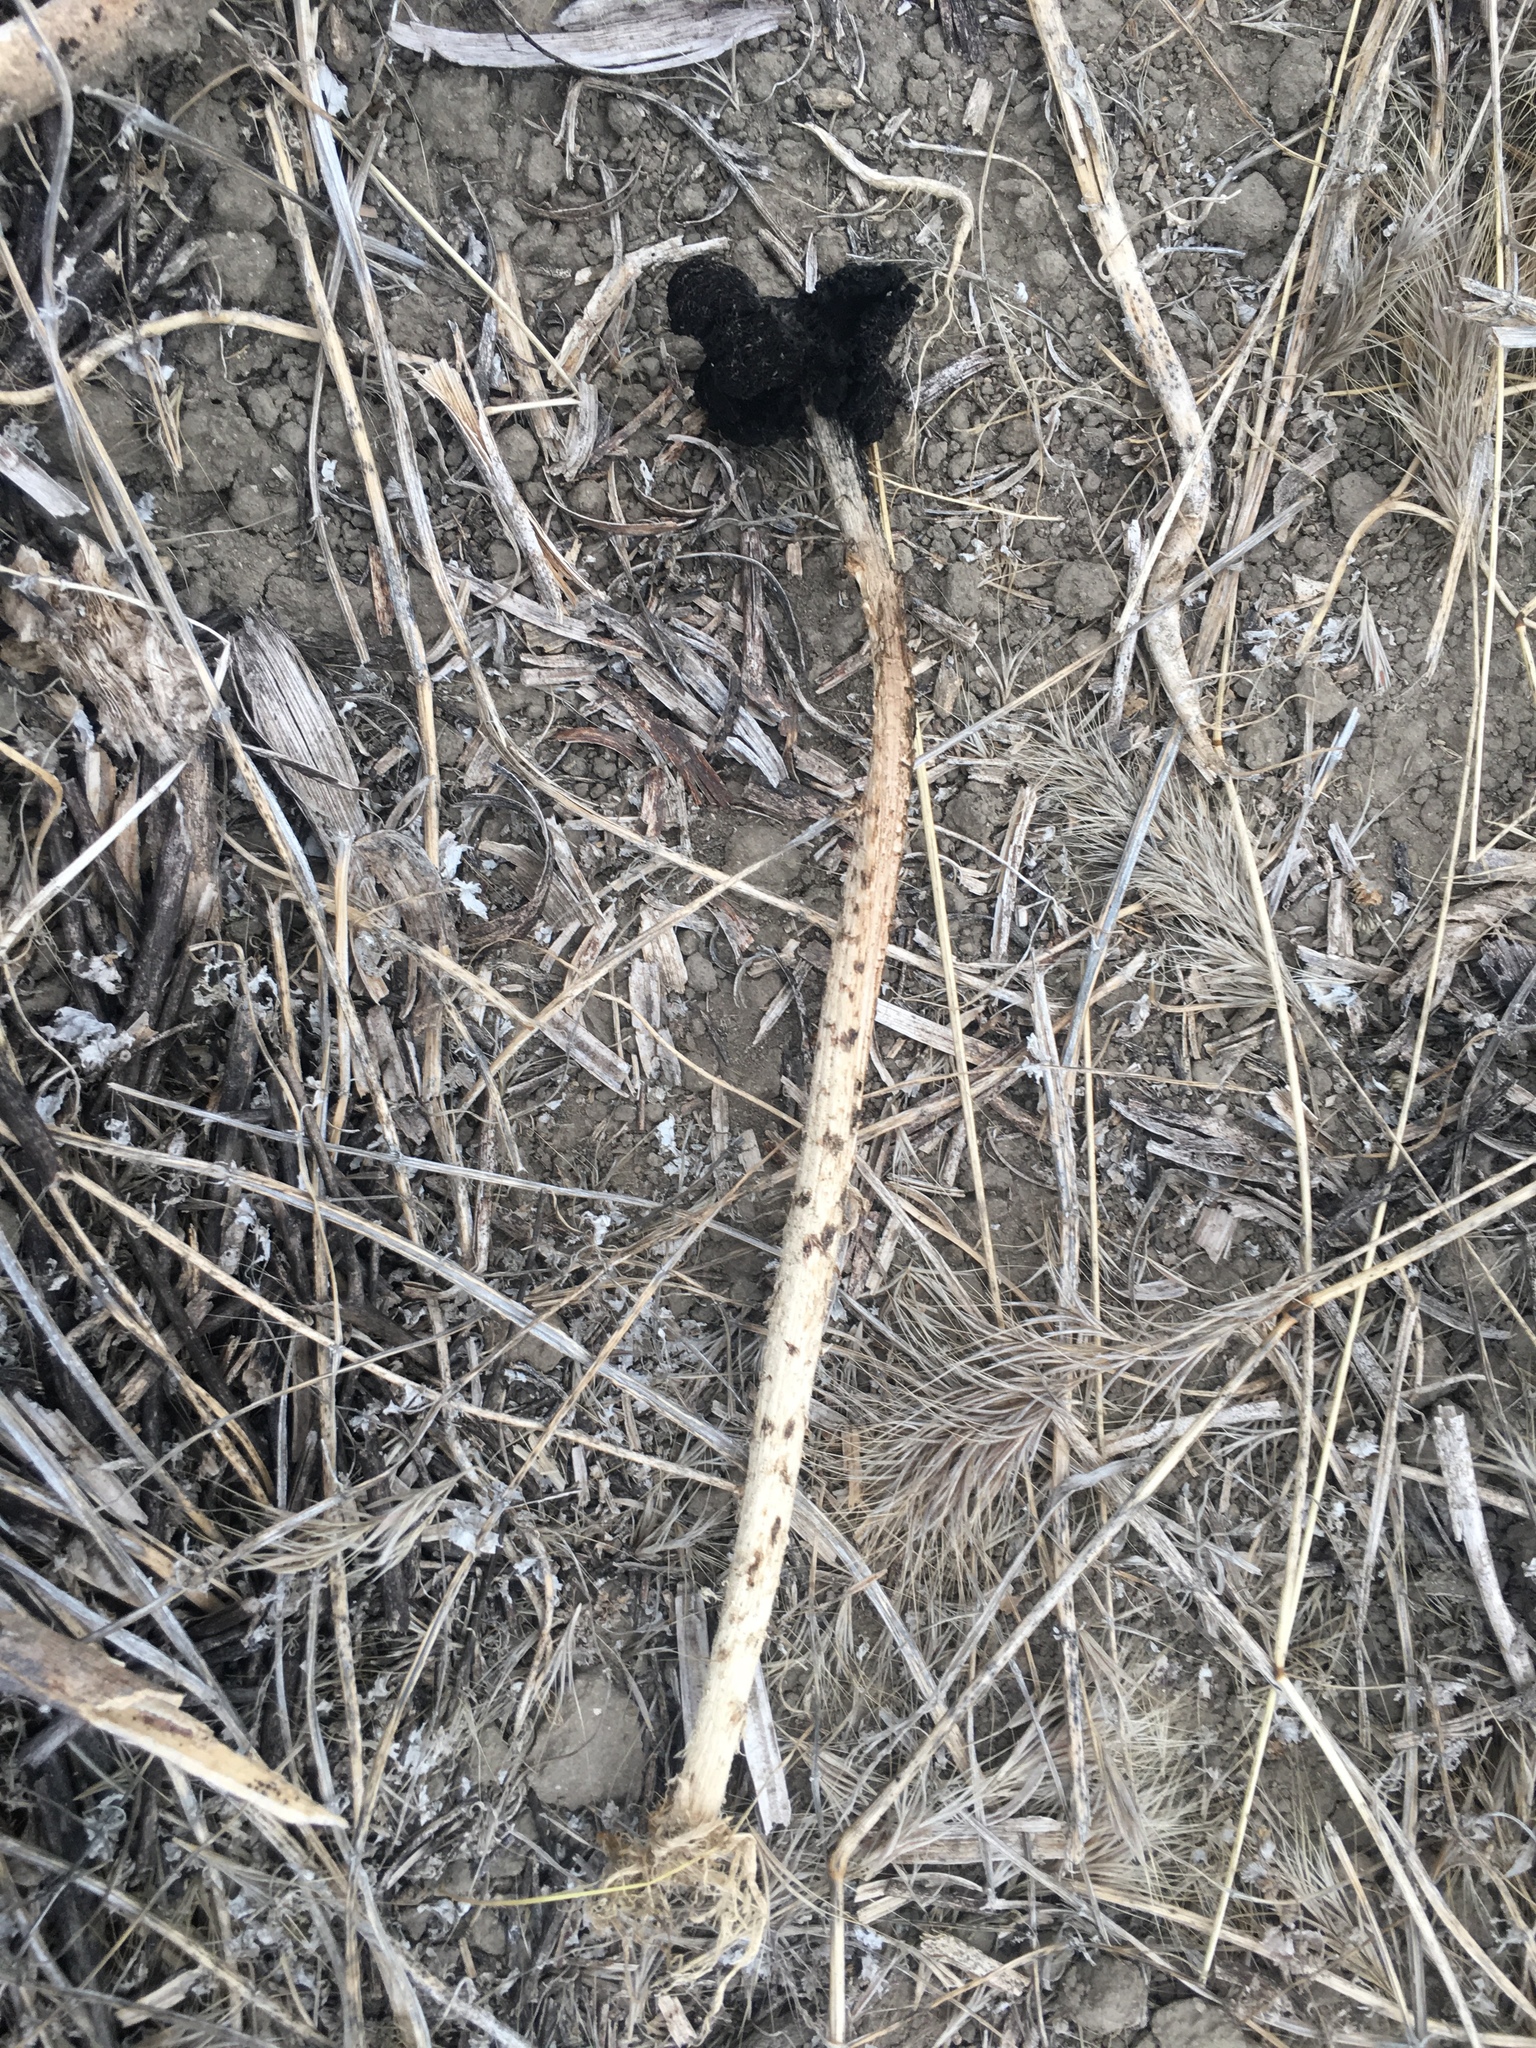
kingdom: Fungi
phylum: Basidiomycota
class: Agaricomycetes
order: Agaricales
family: Agaricaceae
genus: Montagnea
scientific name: Montagnea arenaria
